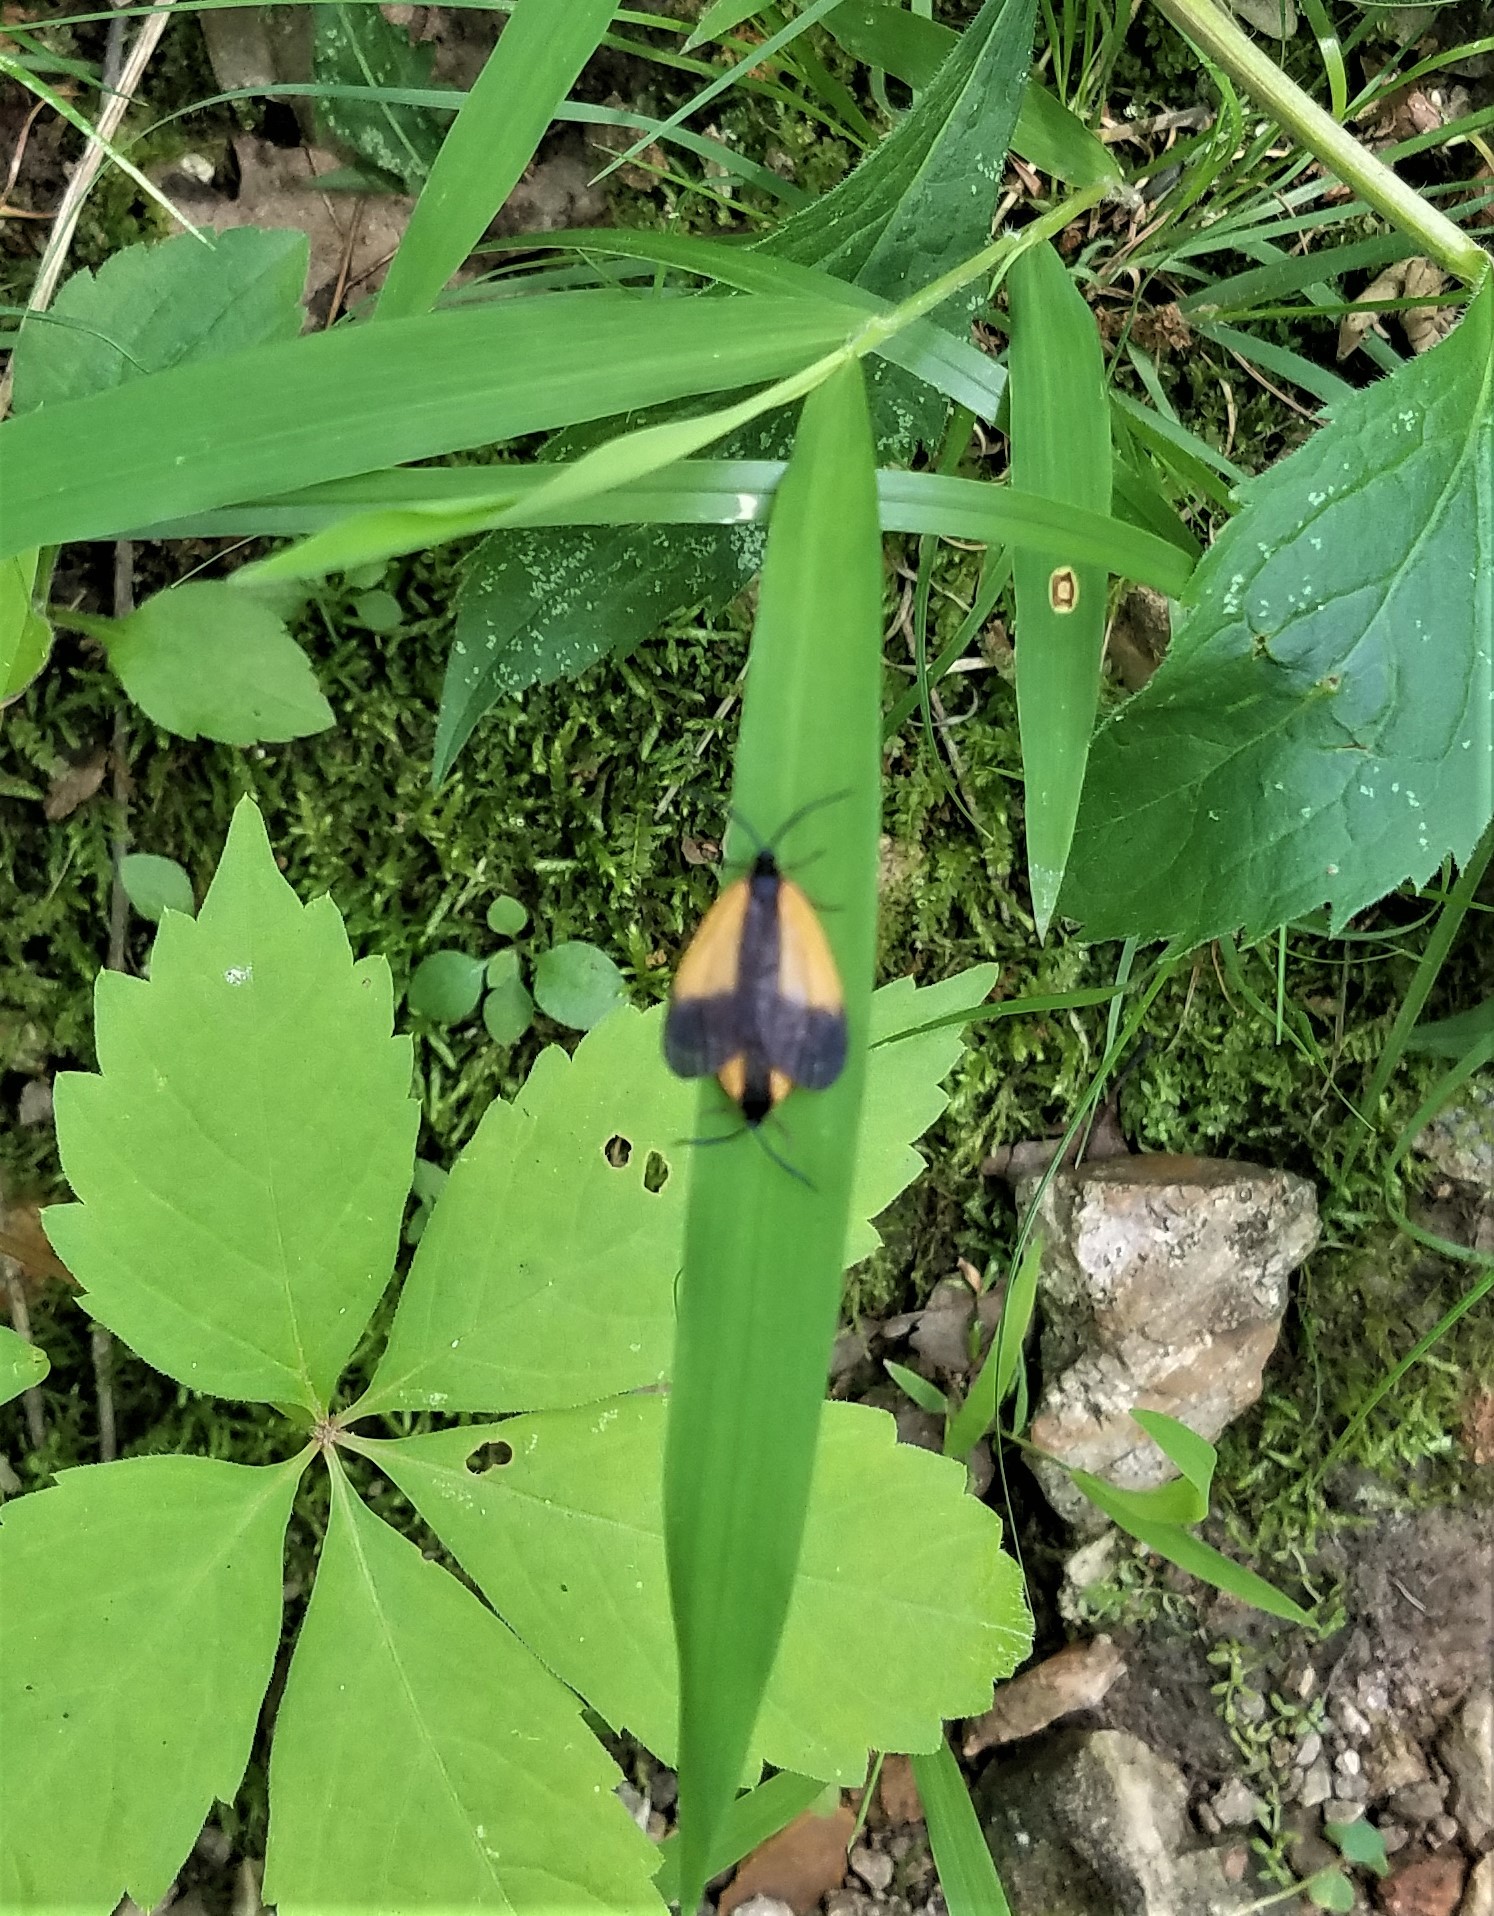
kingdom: Animalia
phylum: Arthropoda
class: Insecta
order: Lepidoptera
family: Zygaenidae
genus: Malthaca
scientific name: Malthaca dimidiata
